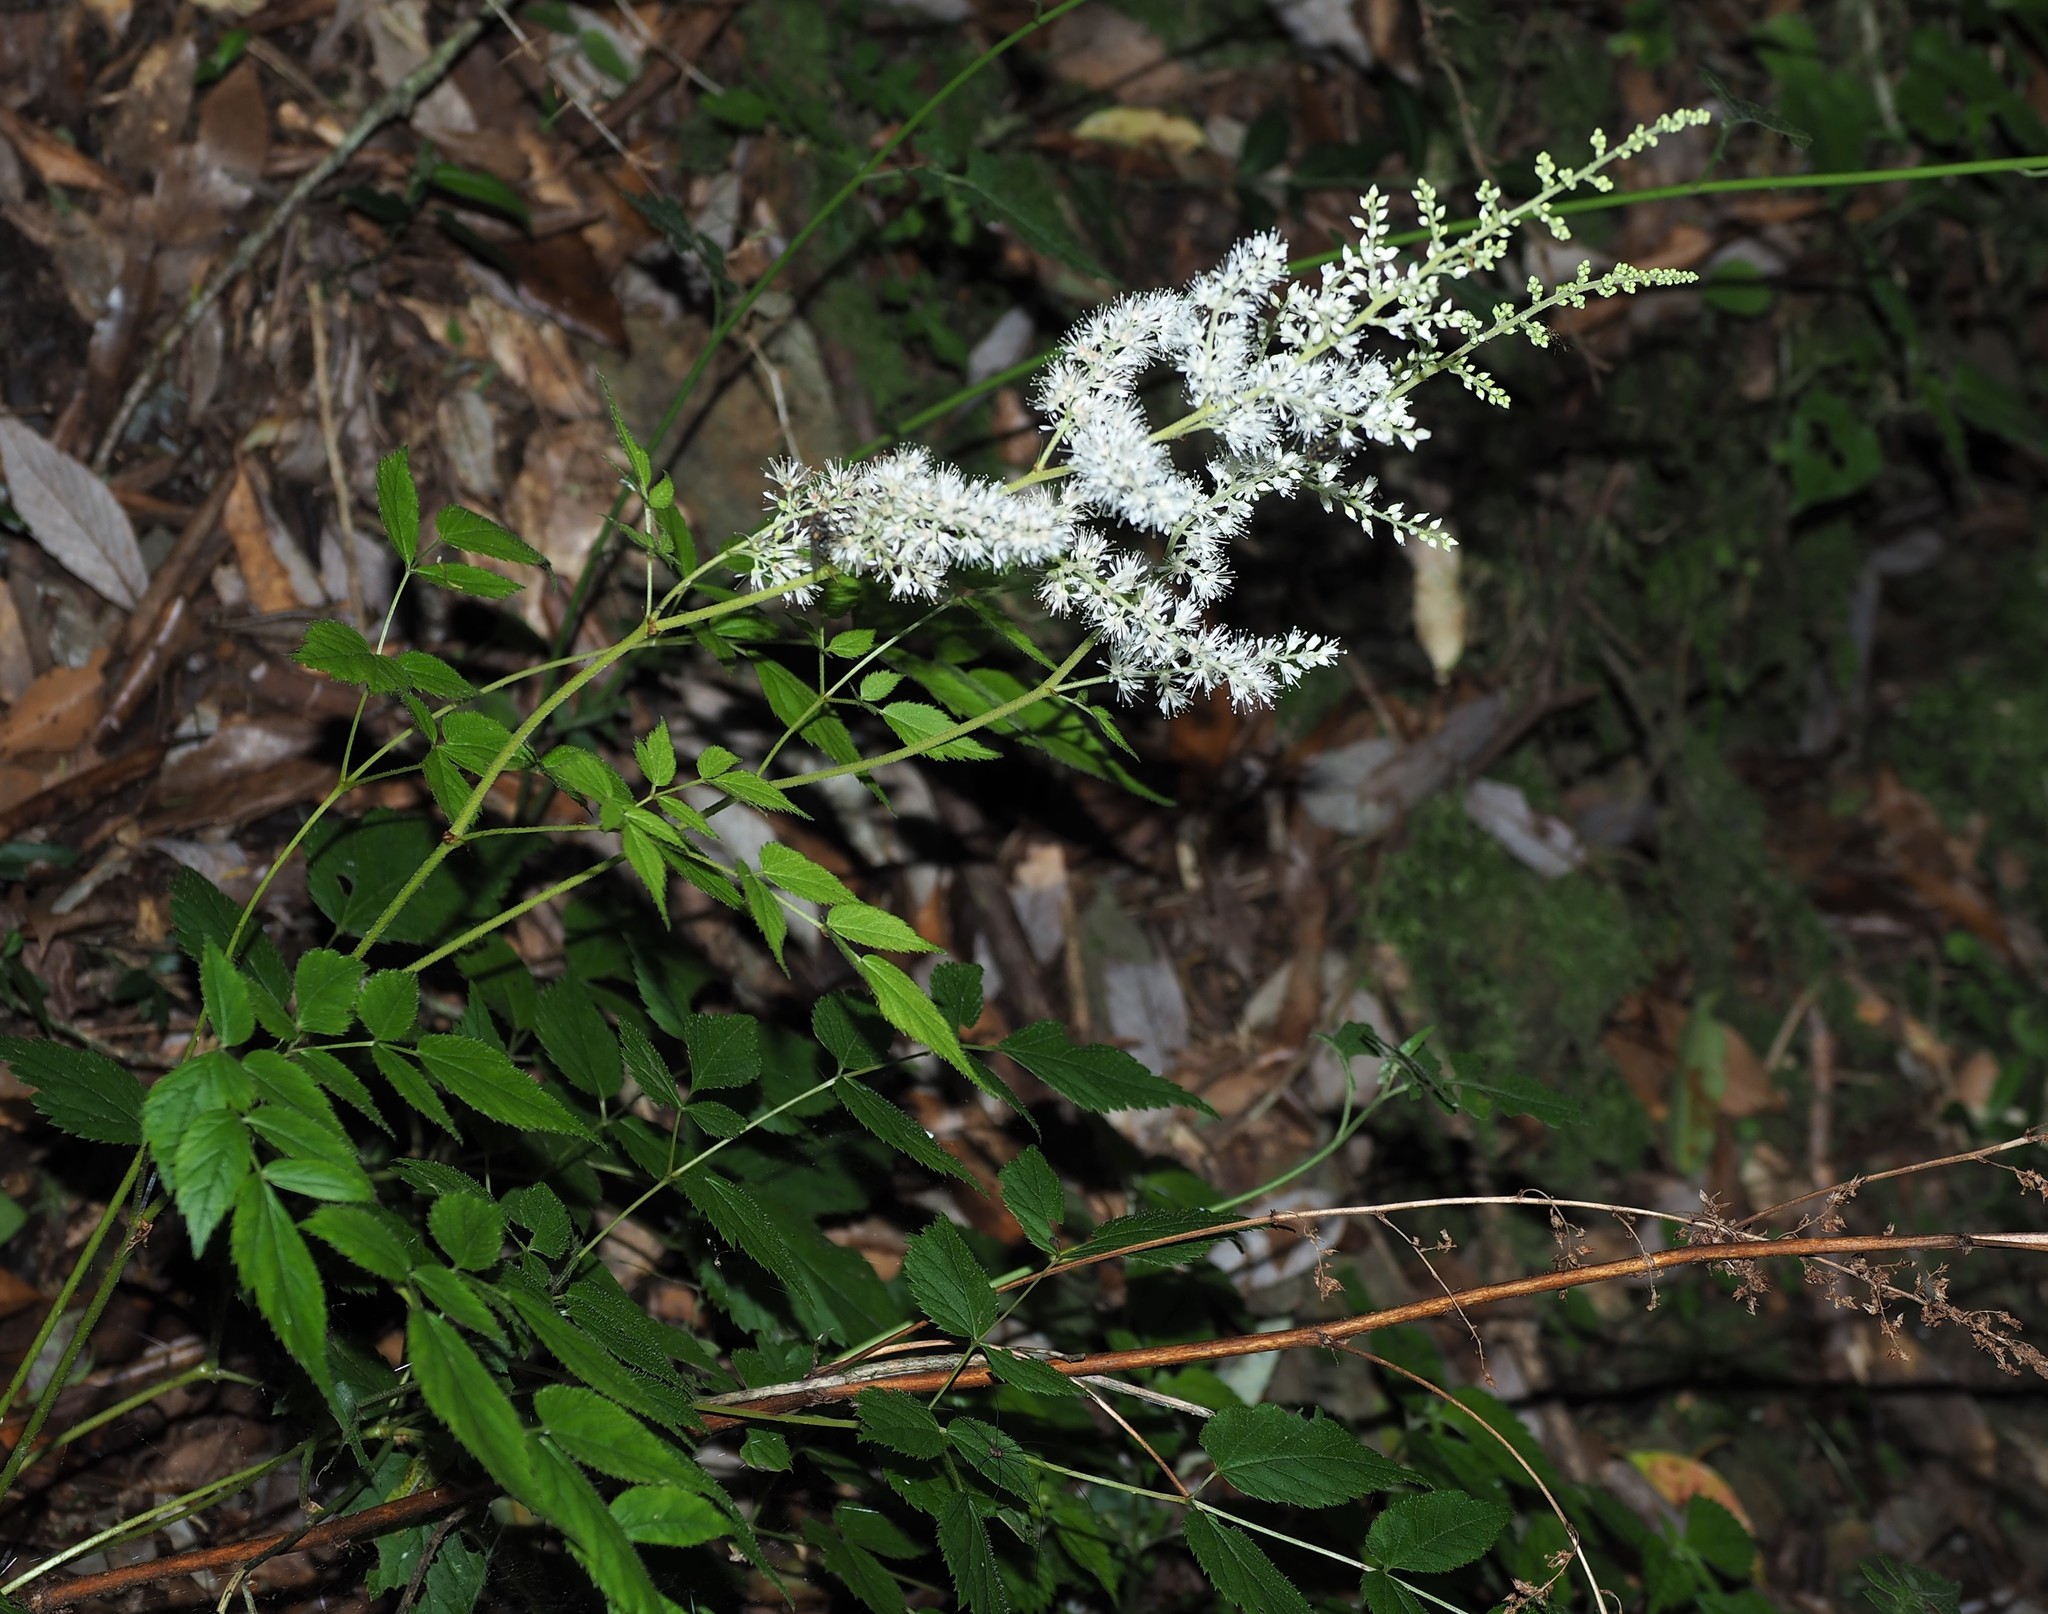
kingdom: Plantae
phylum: Tracheophyta
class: Magnoliopsida
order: Saxifragales
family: Saxifragaceae
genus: Astilbe
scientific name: Astilbe longicarpa
